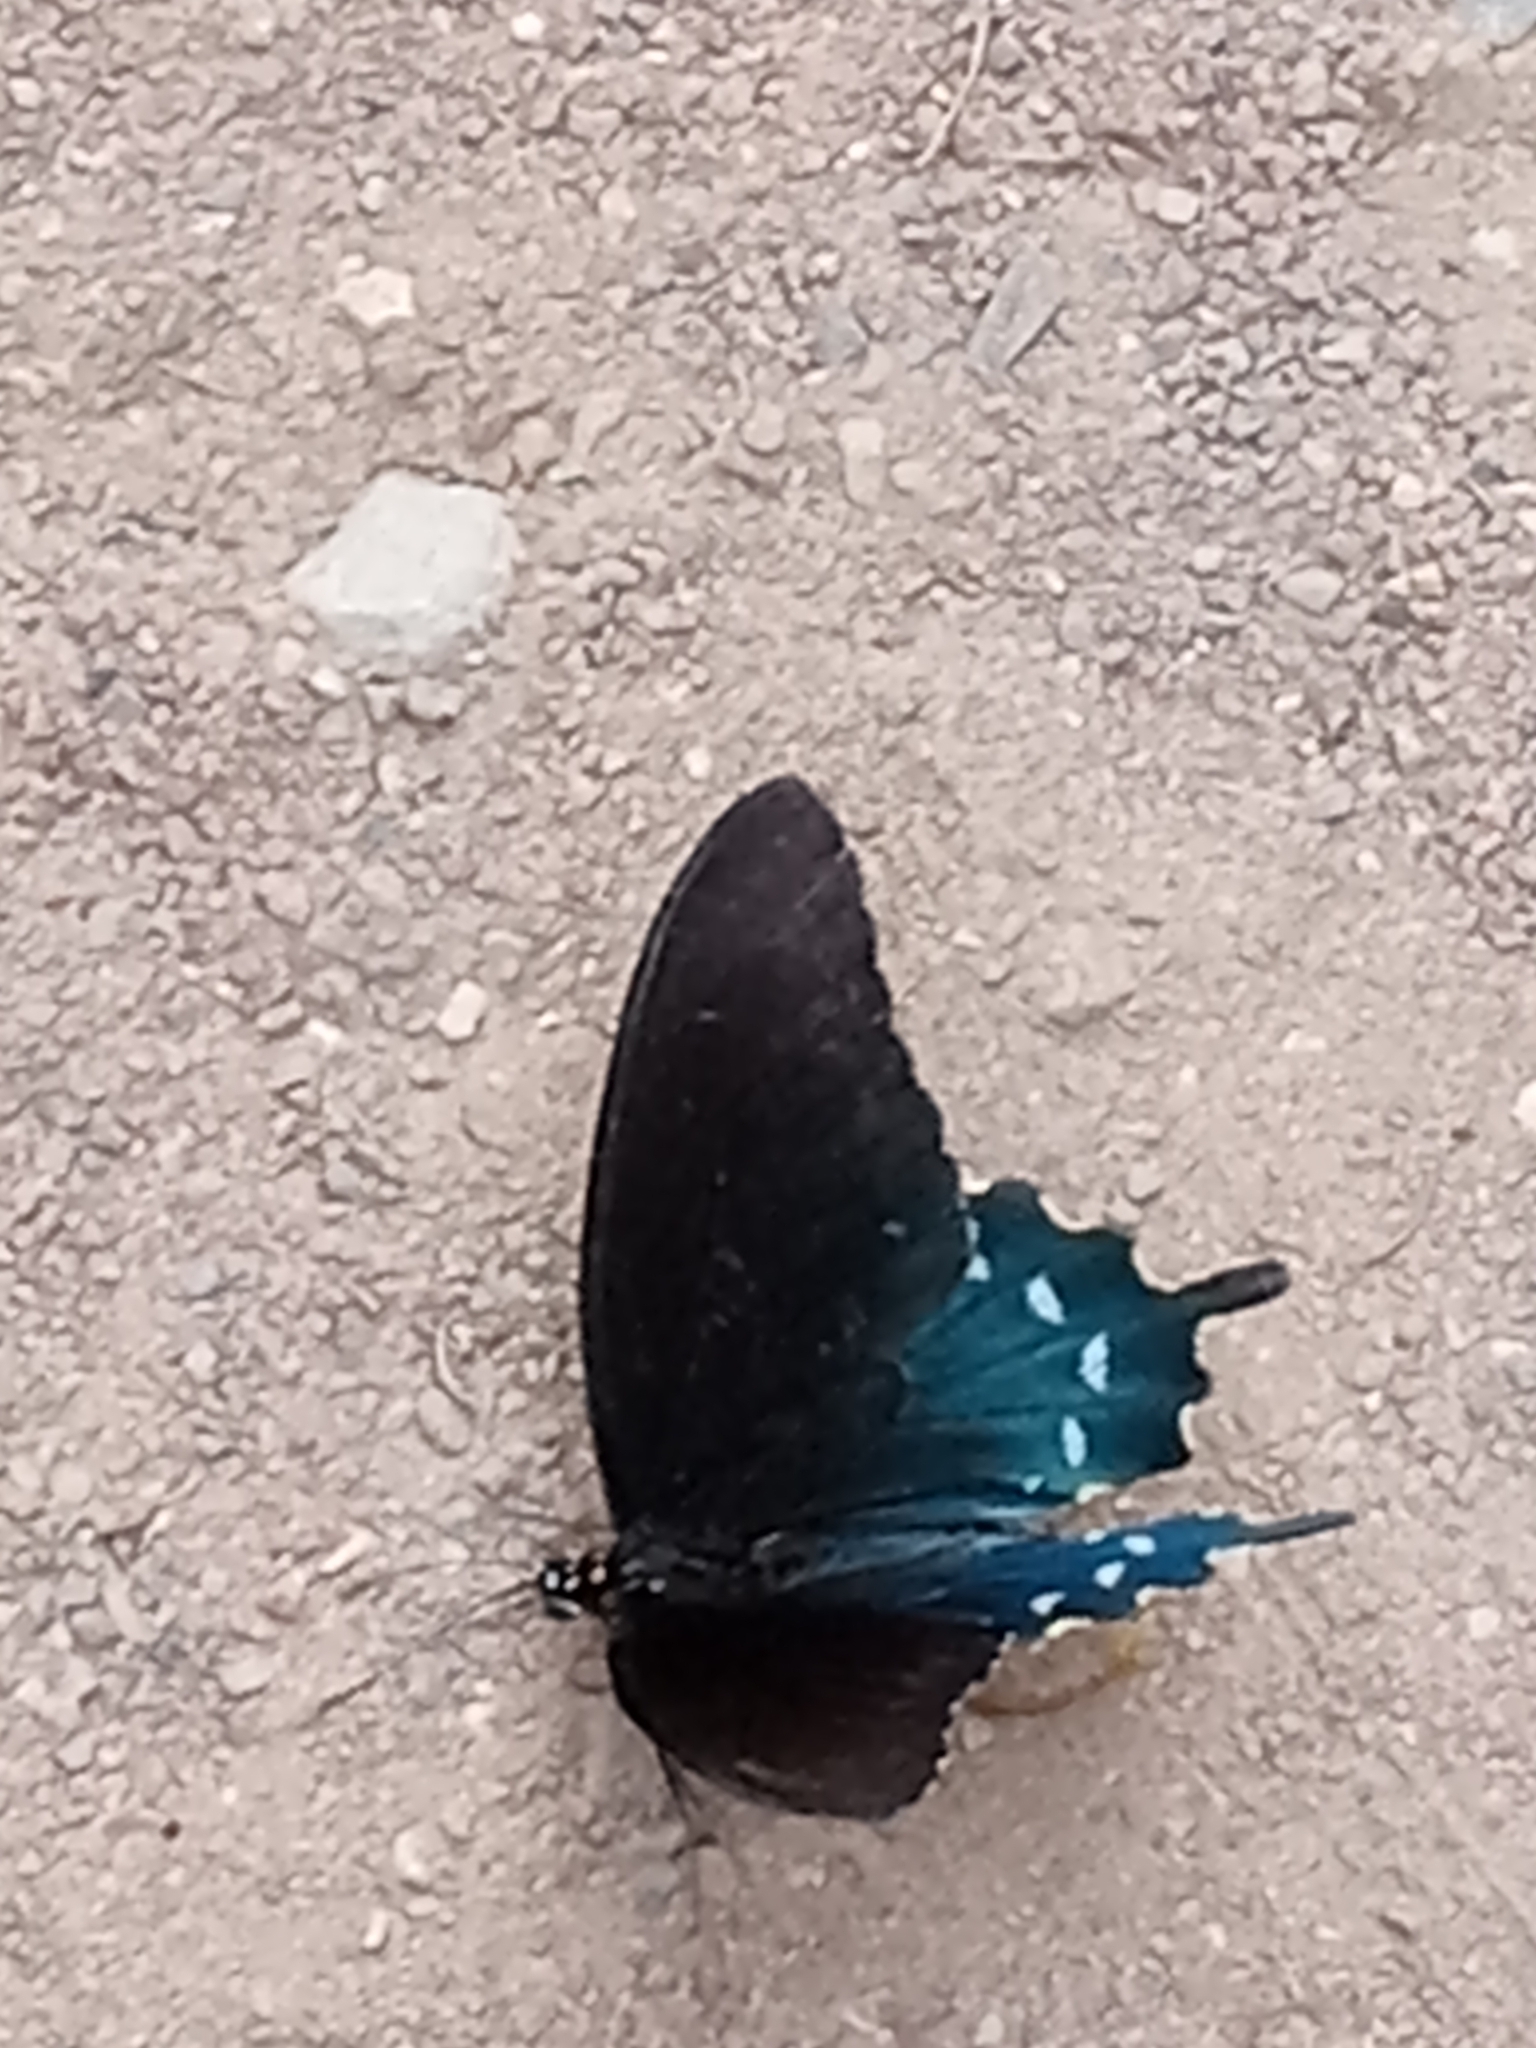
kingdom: Animalia
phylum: Arthropoda
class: Insecta
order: Lepidoptera
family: Papilionidae
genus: Battus
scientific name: Battus philenor
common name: Pipevine swallowtail
